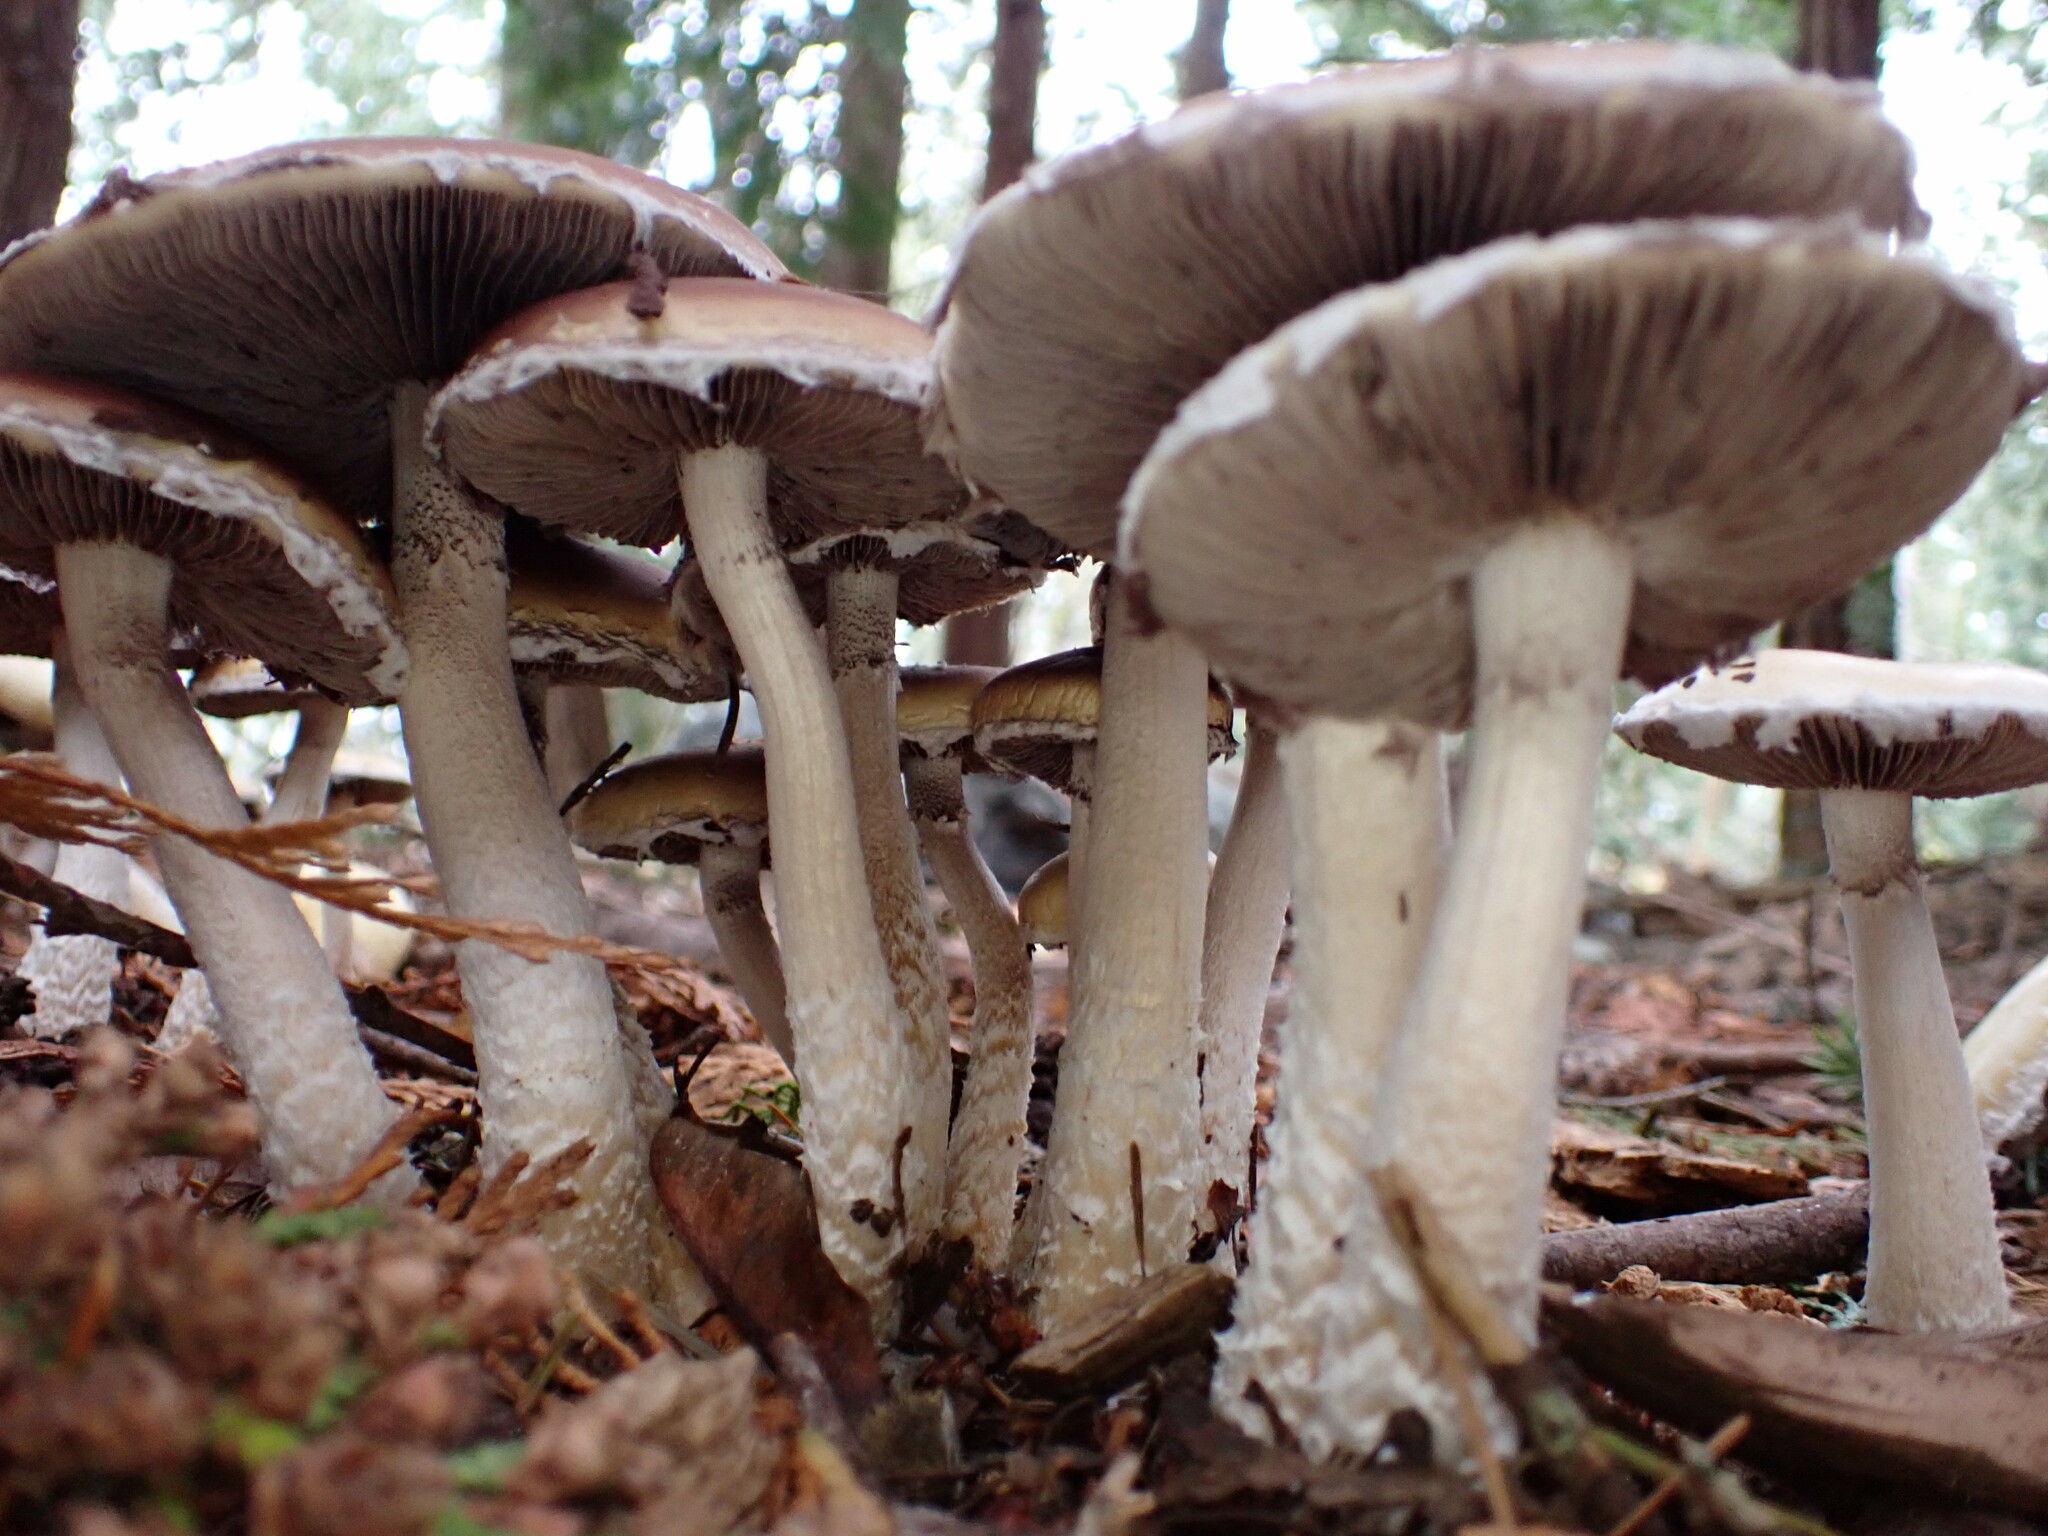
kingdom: Fungi
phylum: Basidiomycota
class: Agaricomycetes
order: Agaricales
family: Strophariaceae
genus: Stropharia
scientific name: Stropharia ambigua
